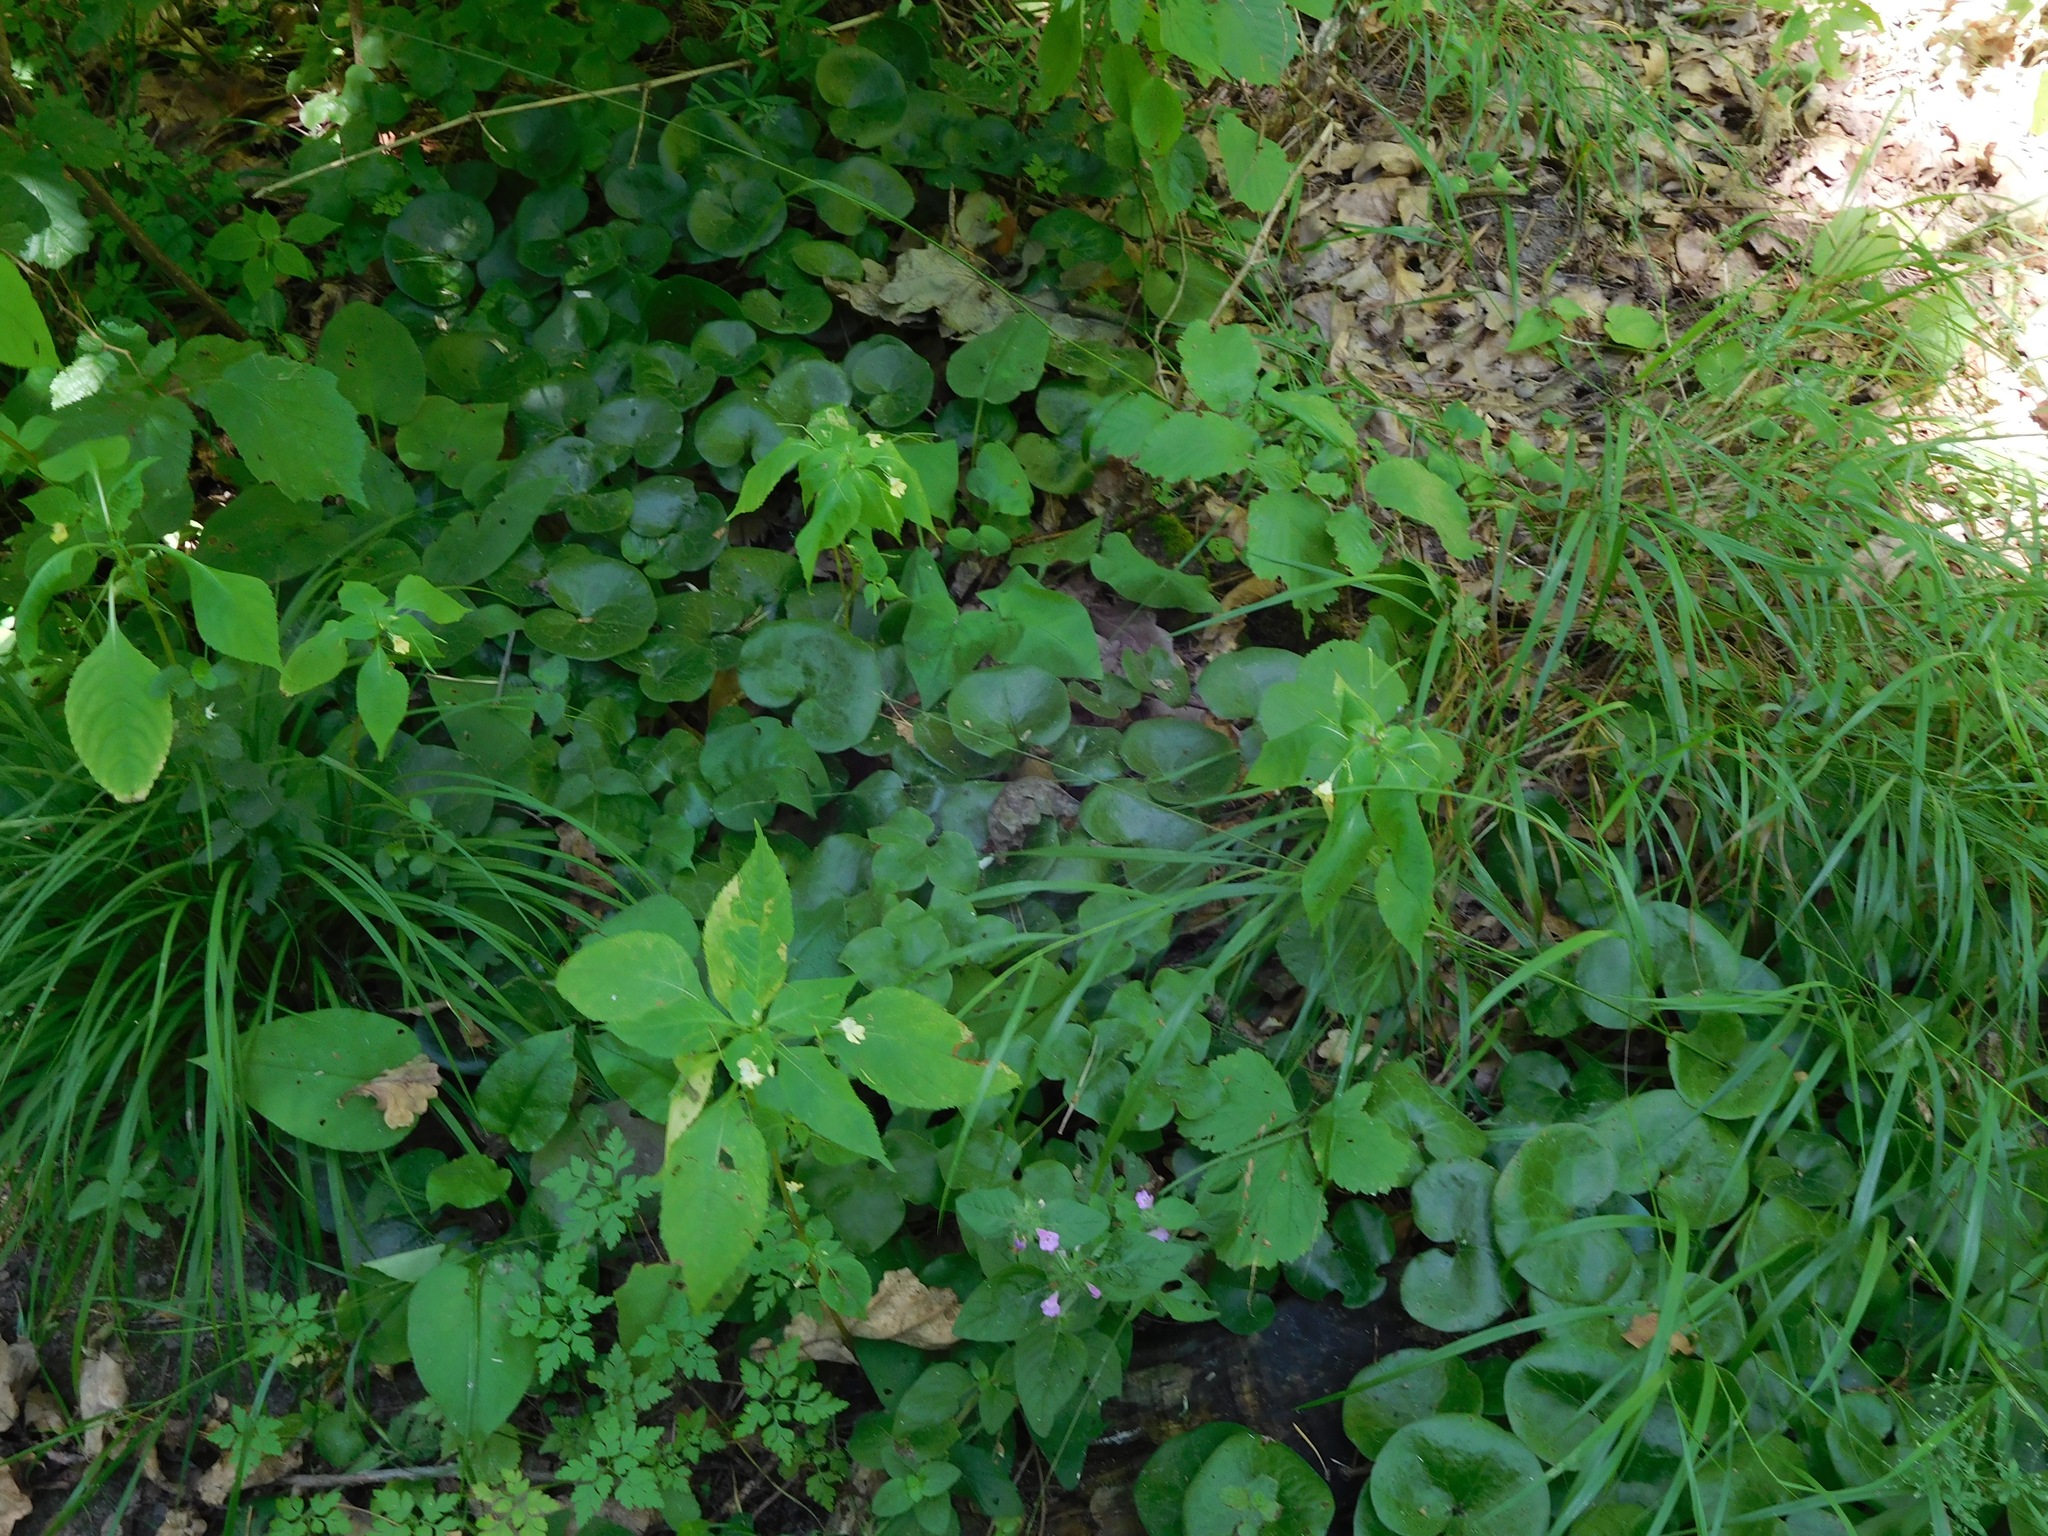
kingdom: Plantae
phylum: Tracheophyta
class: Magnoliopsida
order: Piperales
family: Aristolochiaceae
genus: Asarum
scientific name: Asarum europaeum
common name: Asarabacca
